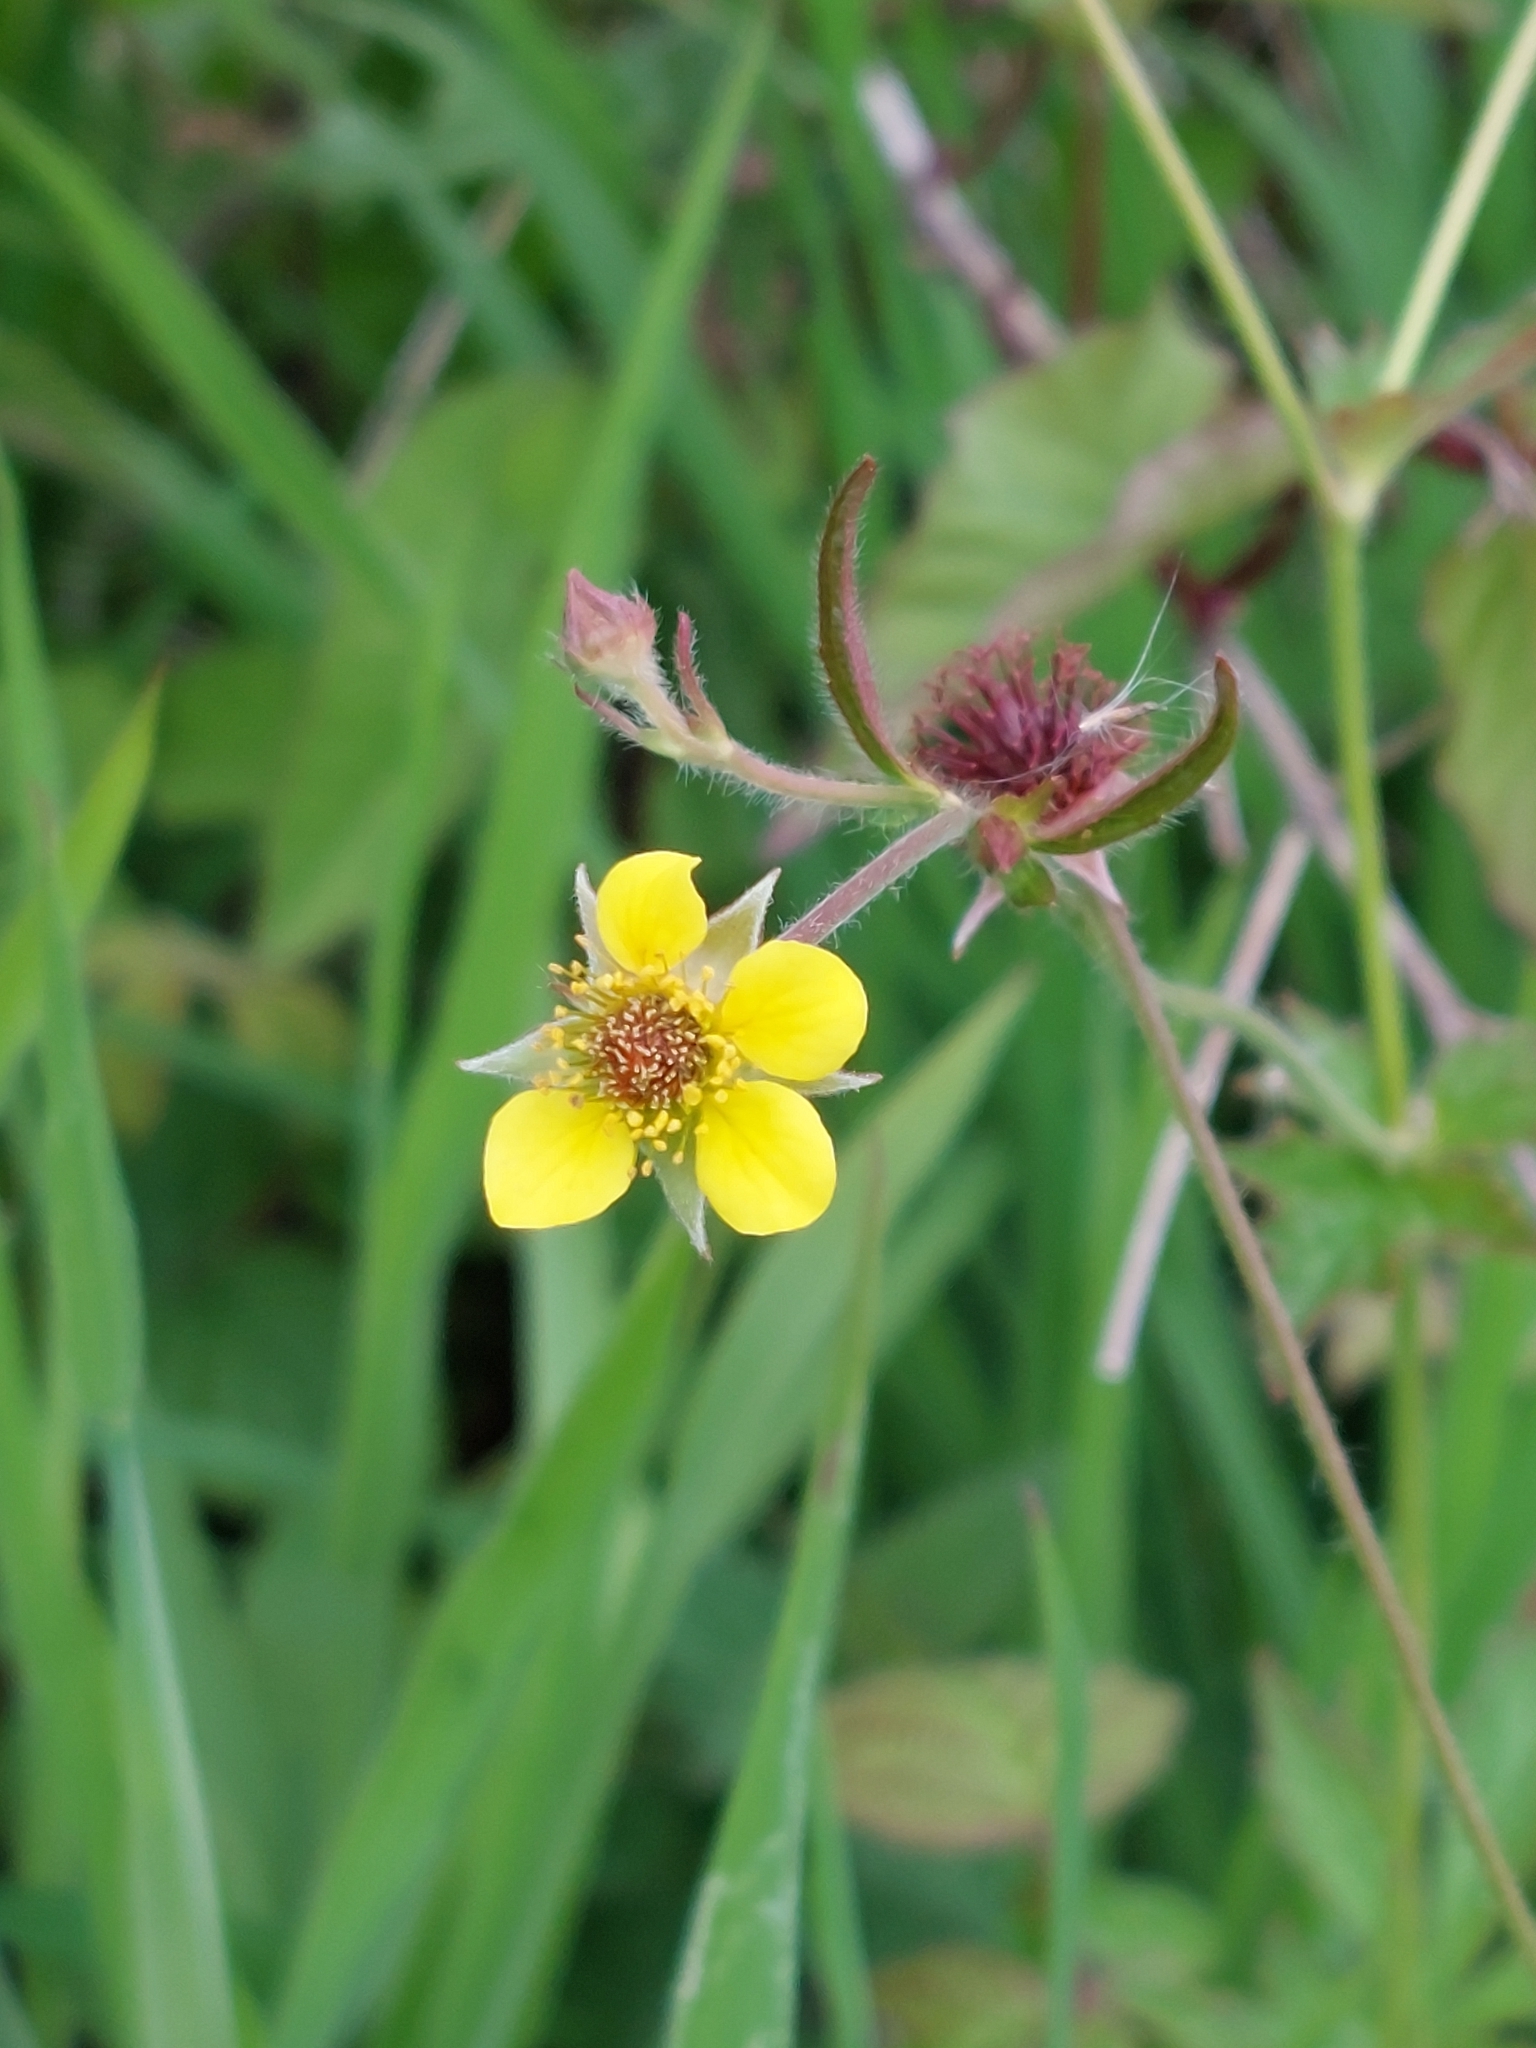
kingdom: Plantae
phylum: Tracheophyta
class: Magnoliopsida
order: Rosales
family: Rosaceae
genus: Geum
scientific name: Geum urbanum
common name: Wood avens
